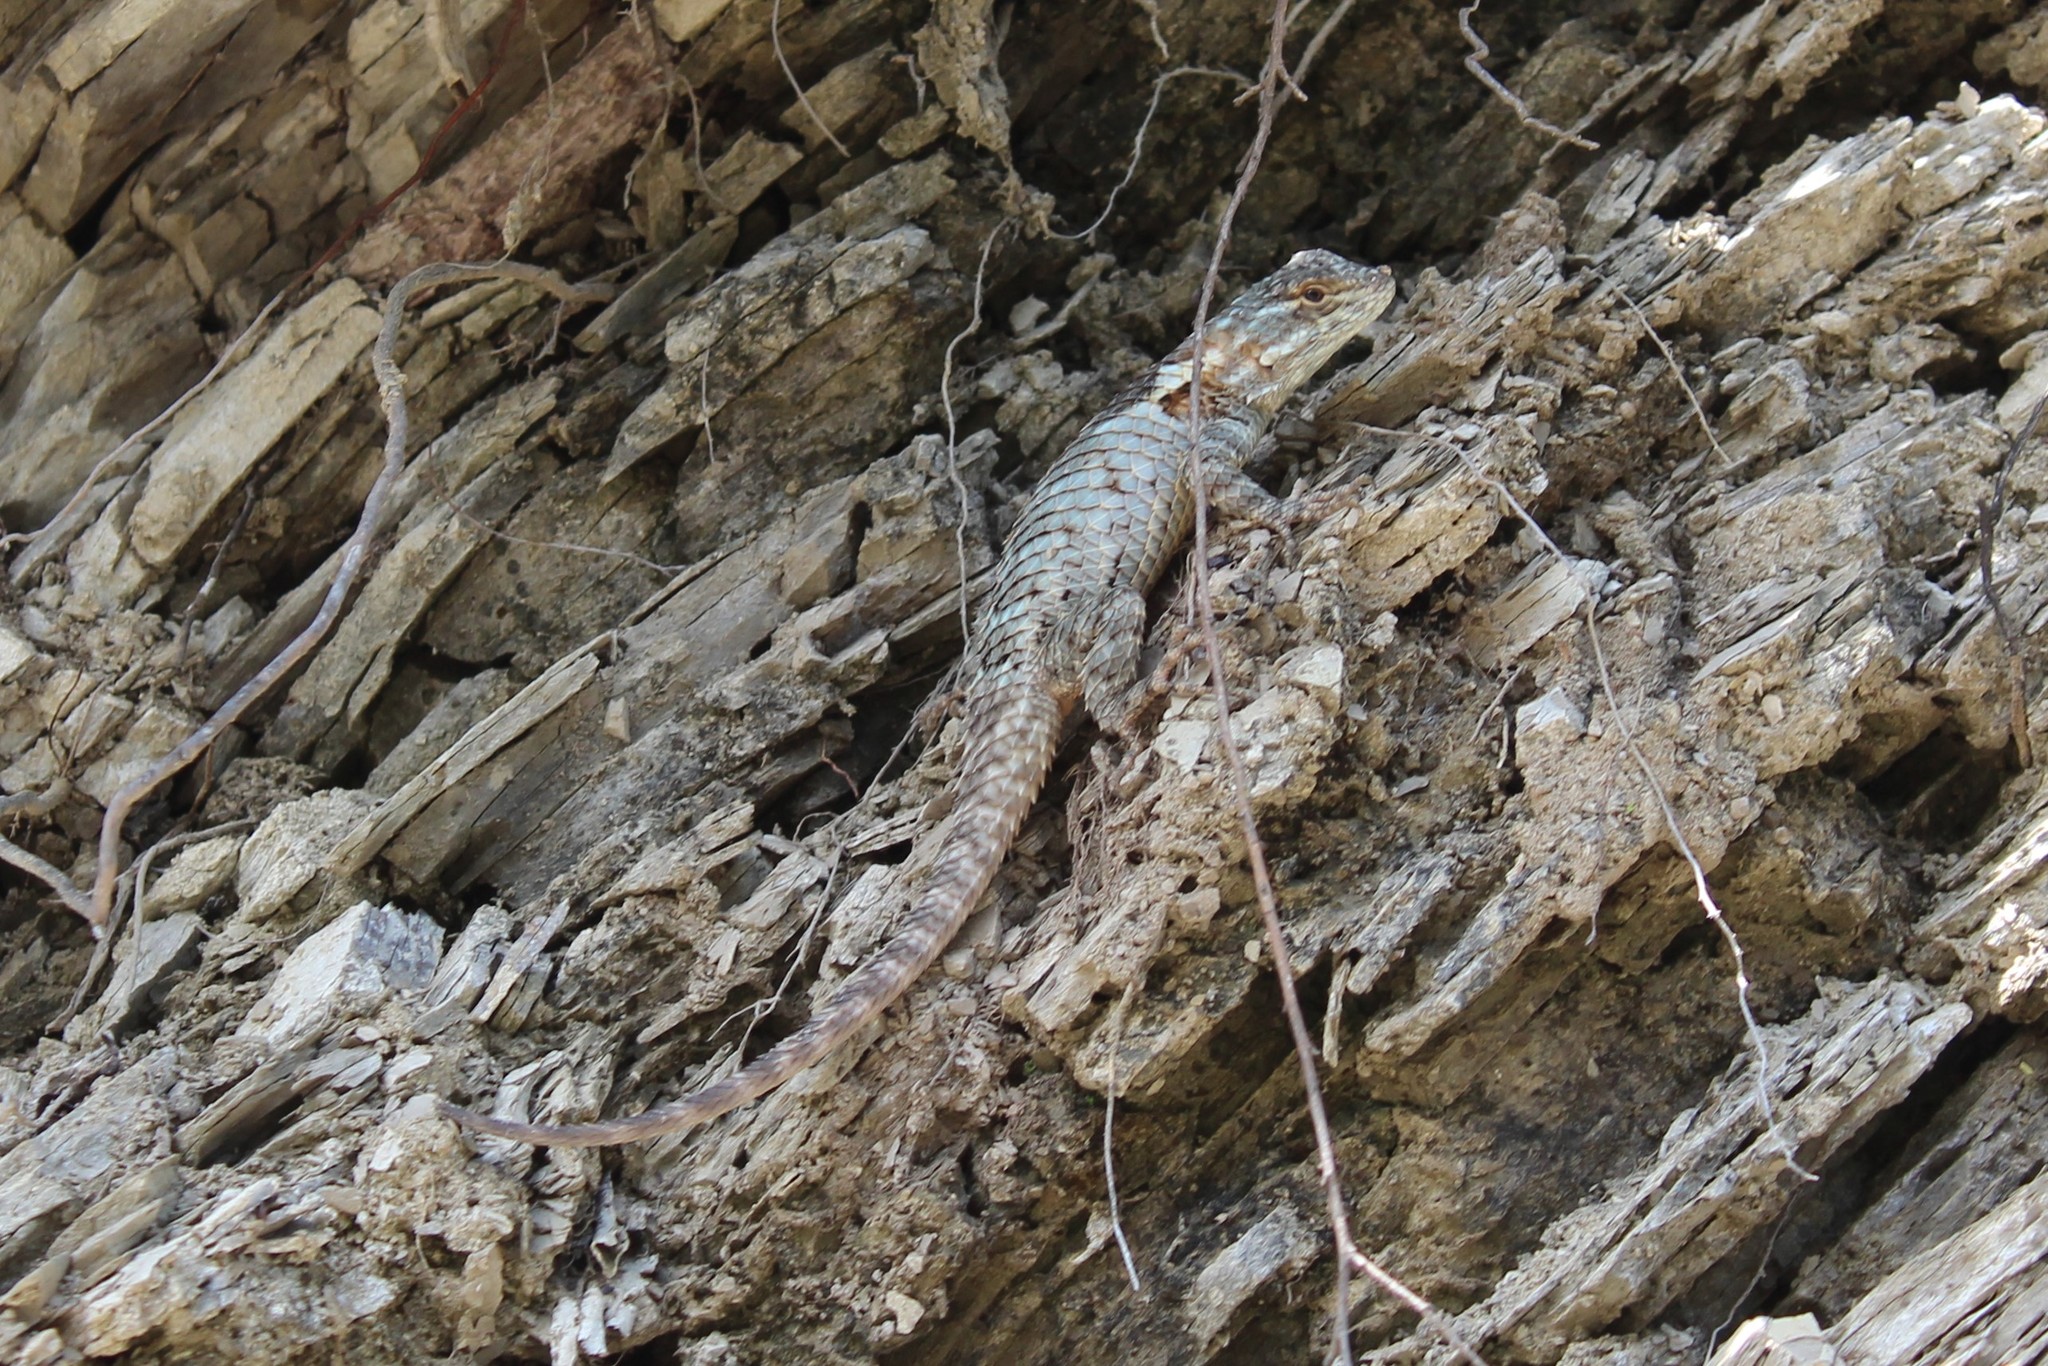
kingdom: Animalia
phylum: Chordata
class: Squamata
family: Phrynosomatidae
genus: Sceloporus
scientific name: Sceloporus torquatus
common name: Central plateau torquate lizard [melanogaster]
